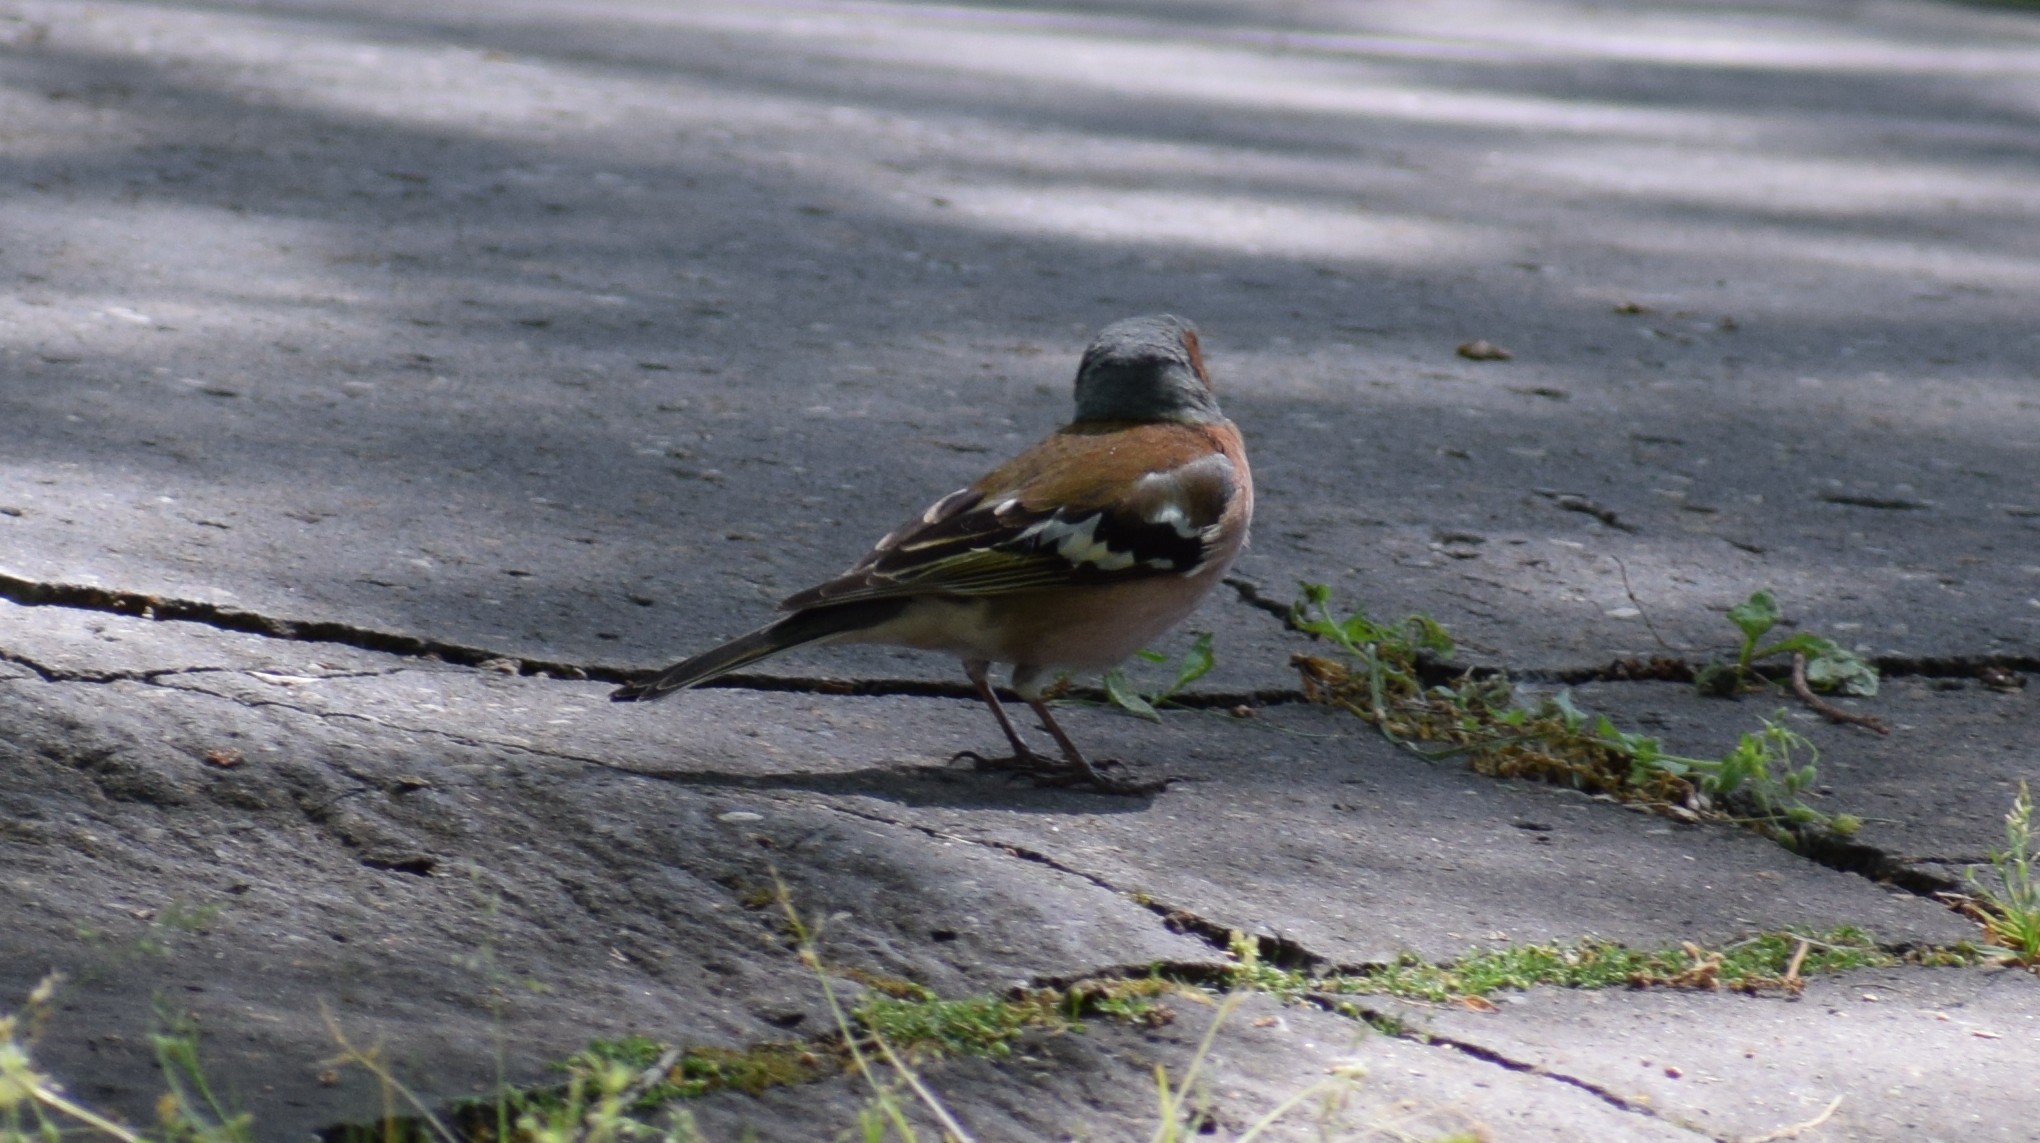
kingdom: Animalia
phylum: Chordata
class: Aves
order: Passeriformes
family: Fringillidae
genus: Fringilla
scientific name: Fringilla coelebs
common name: Common chaffinch
